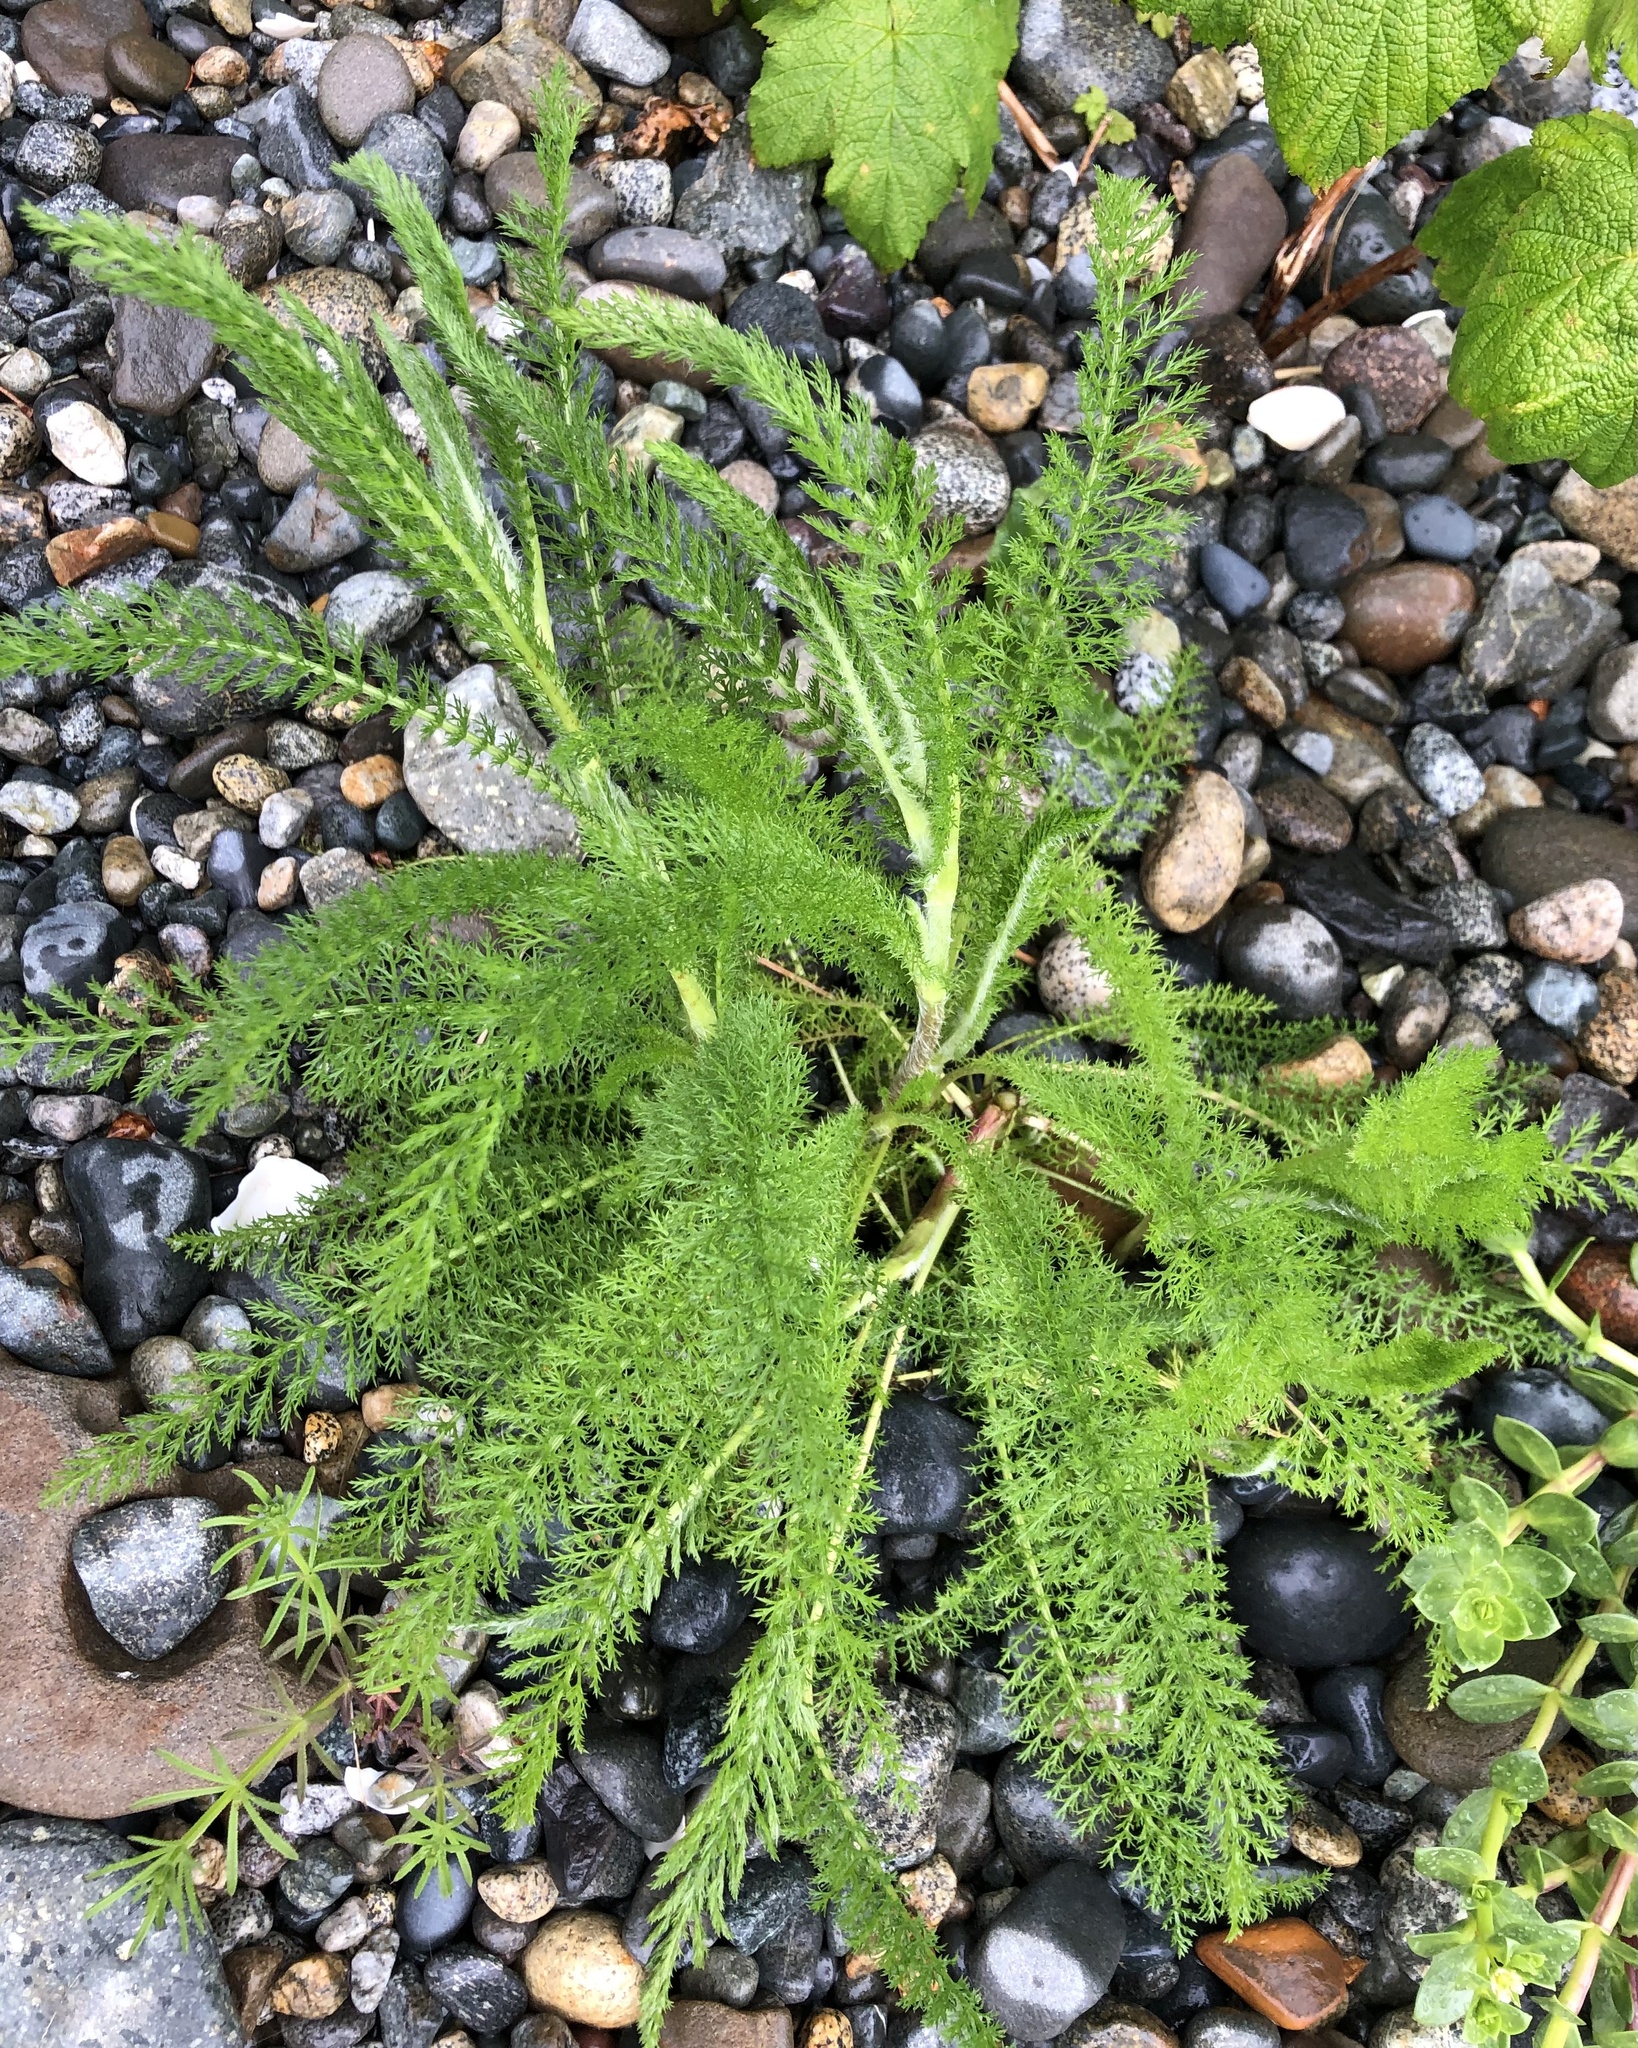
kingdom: Plantae
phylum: Tracheophyta
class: Magnoliopsida
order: Asterales
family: Asteraceae
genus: Achillea
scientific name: Achillea millefolium
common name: Yarrow
